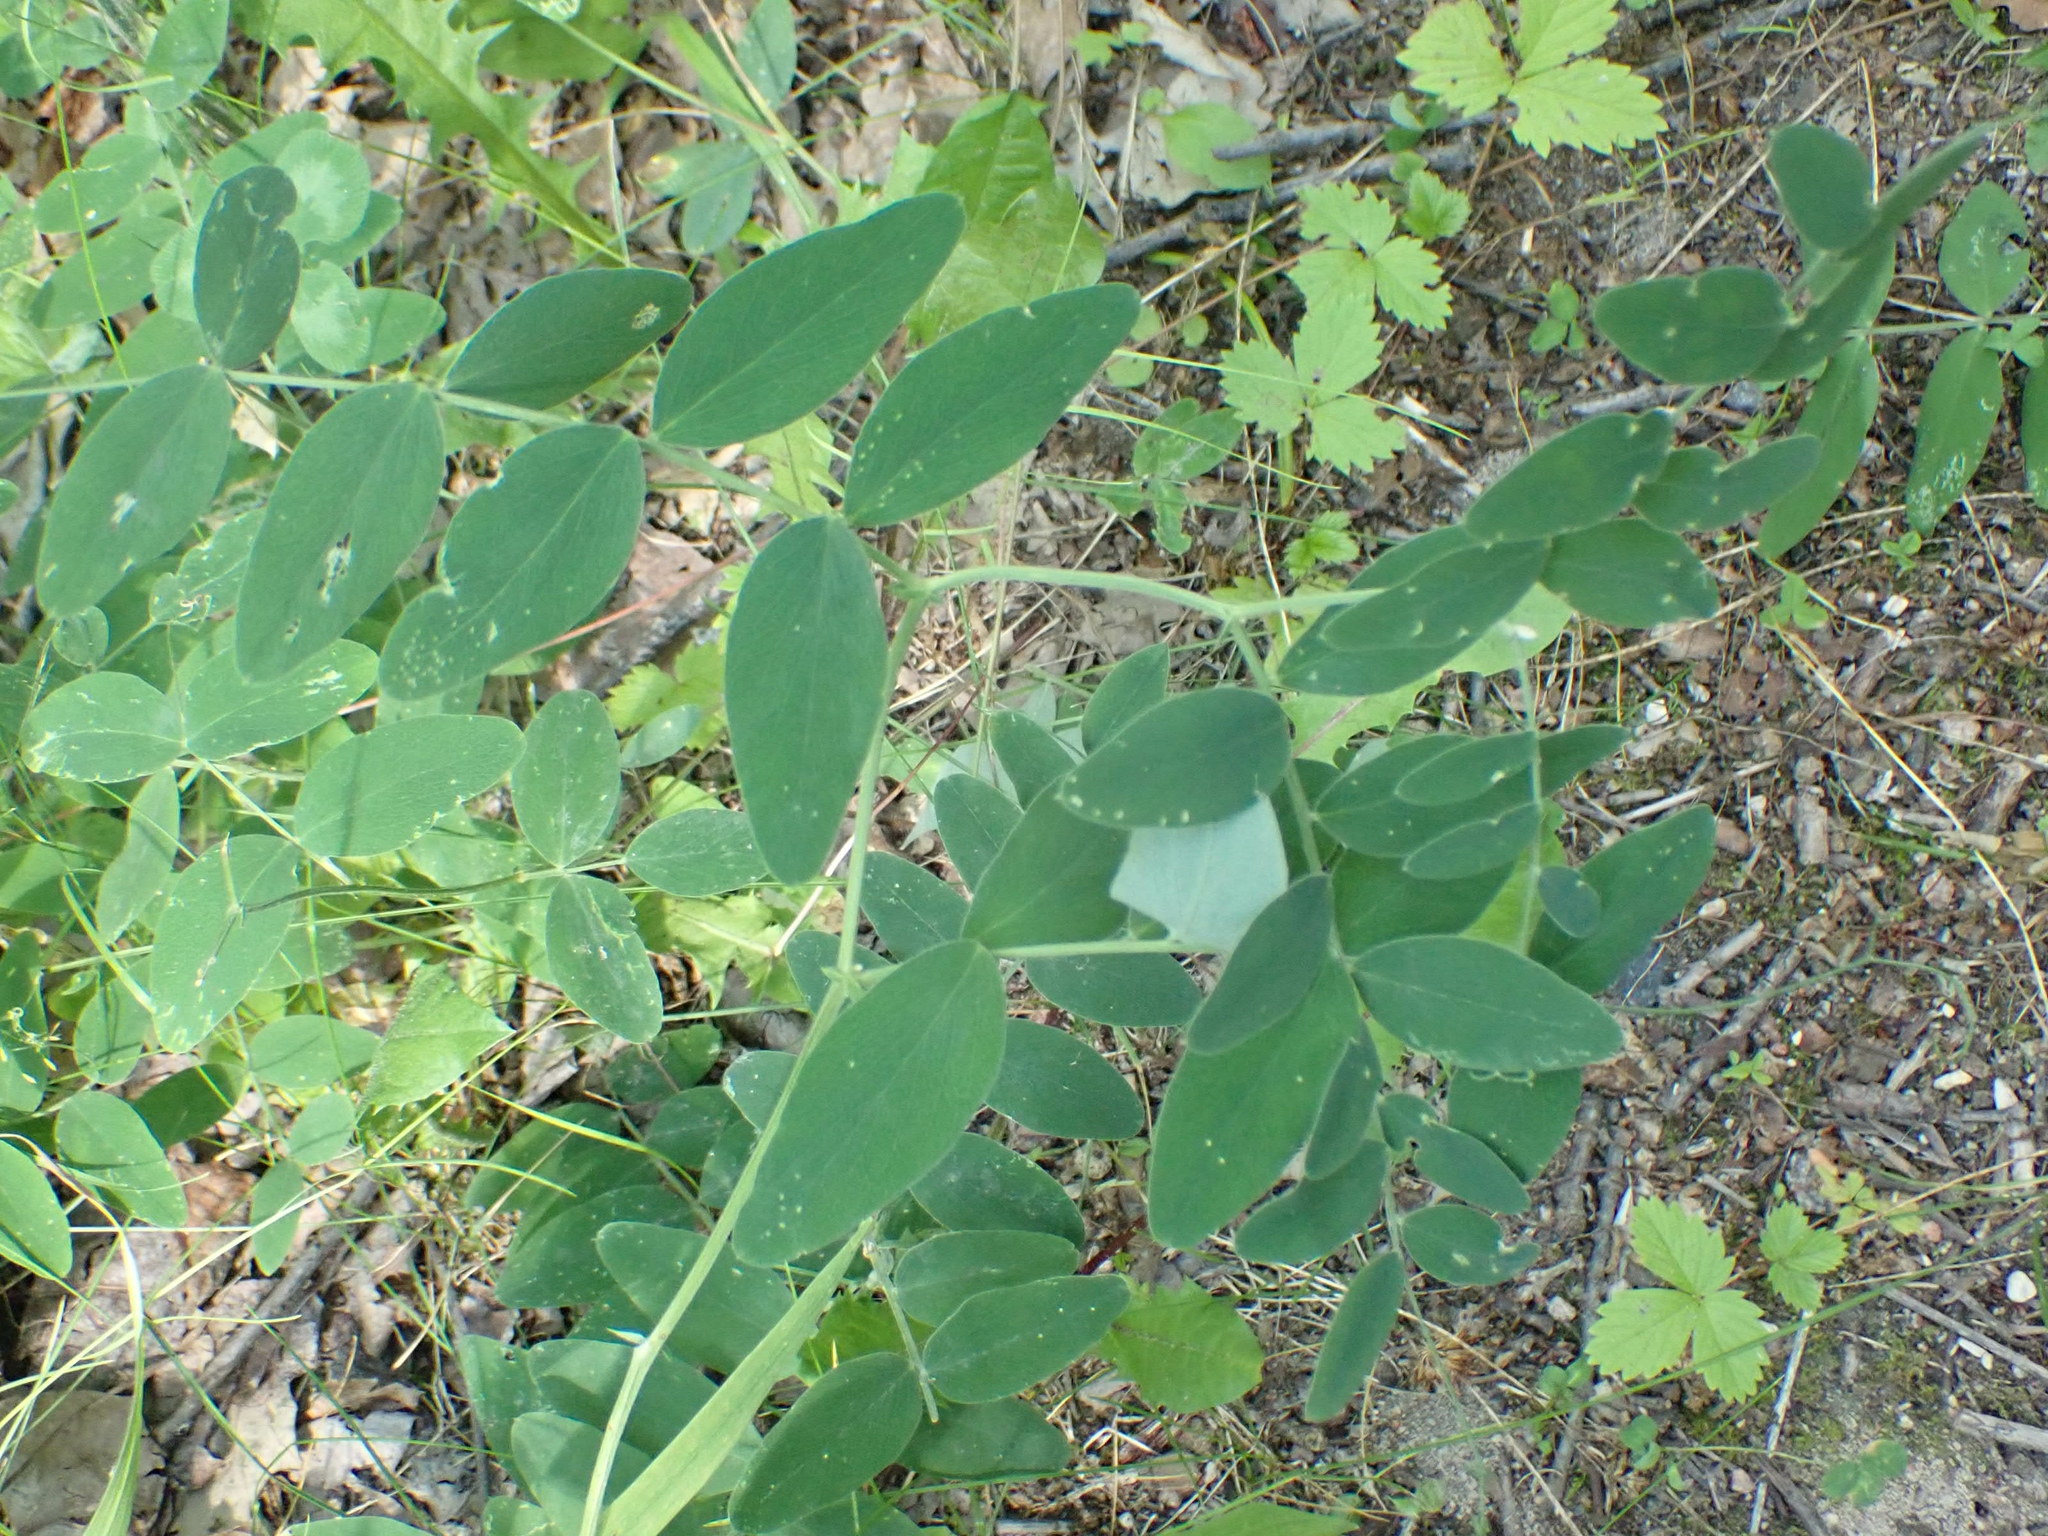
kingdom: Plantae
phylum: Tracheophyta
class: Magnoliopsida
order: Fabales
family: Fabaceae
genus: Lathyrus
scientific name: Lathyrus venosus
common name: Forest-pea
